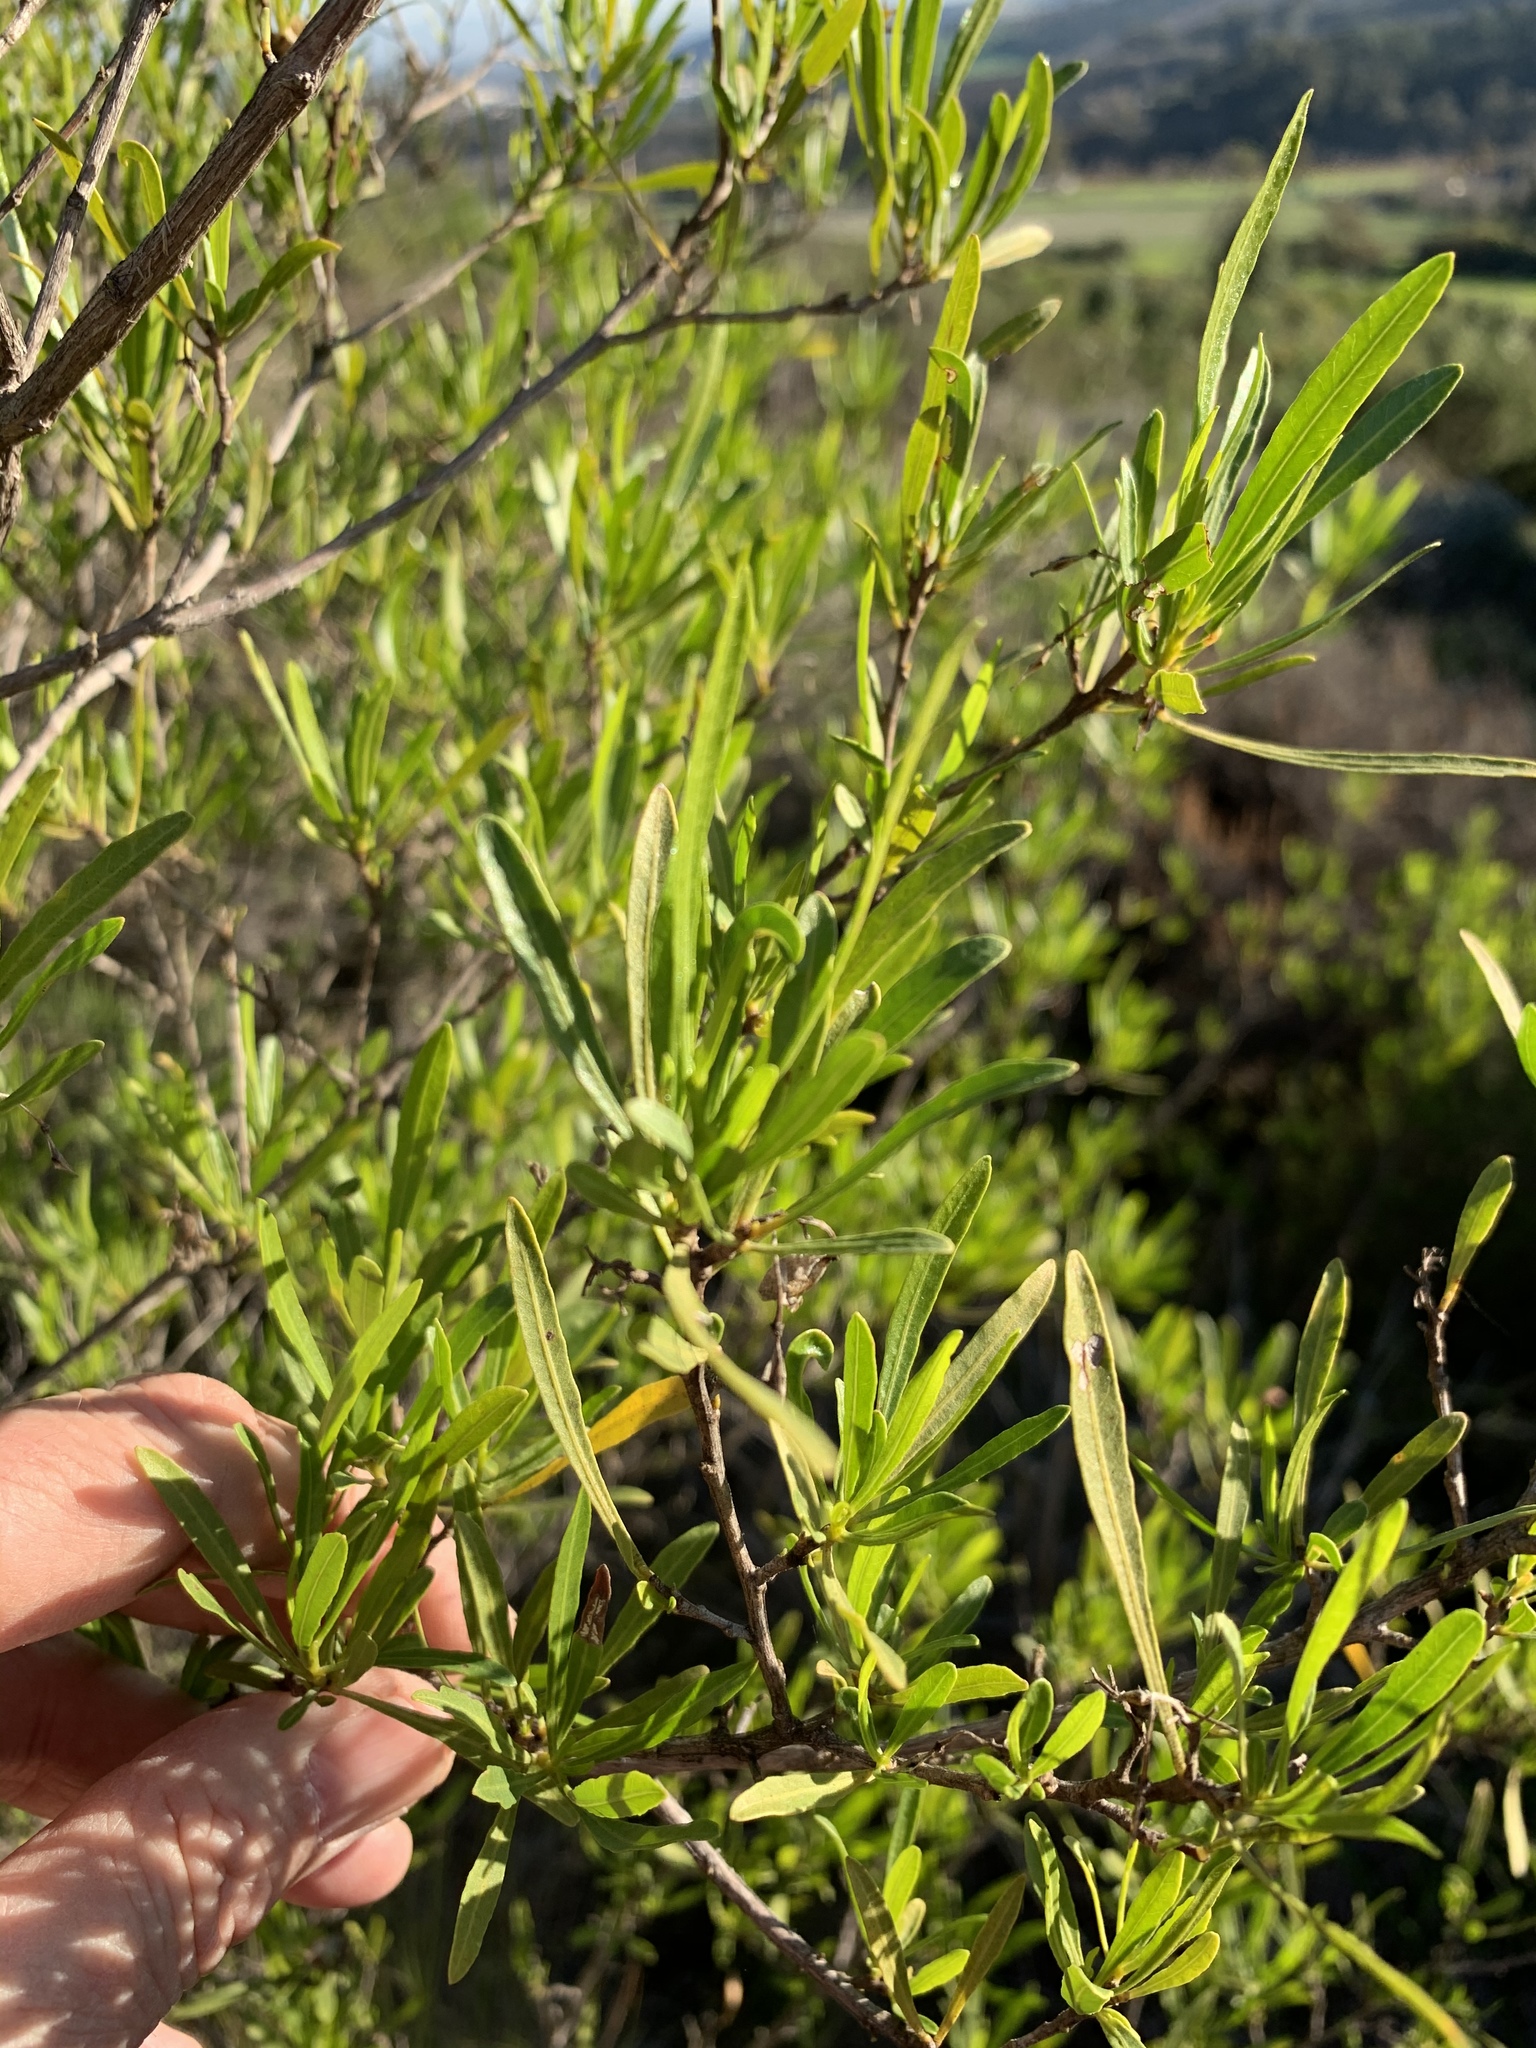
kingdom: Plantae
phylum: Tracheophyta
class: Magnoliopsida
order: Sapindales
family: Sapindaceae
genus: Dodonaea
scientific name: Dodonaea viscosa
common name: Hopbush
